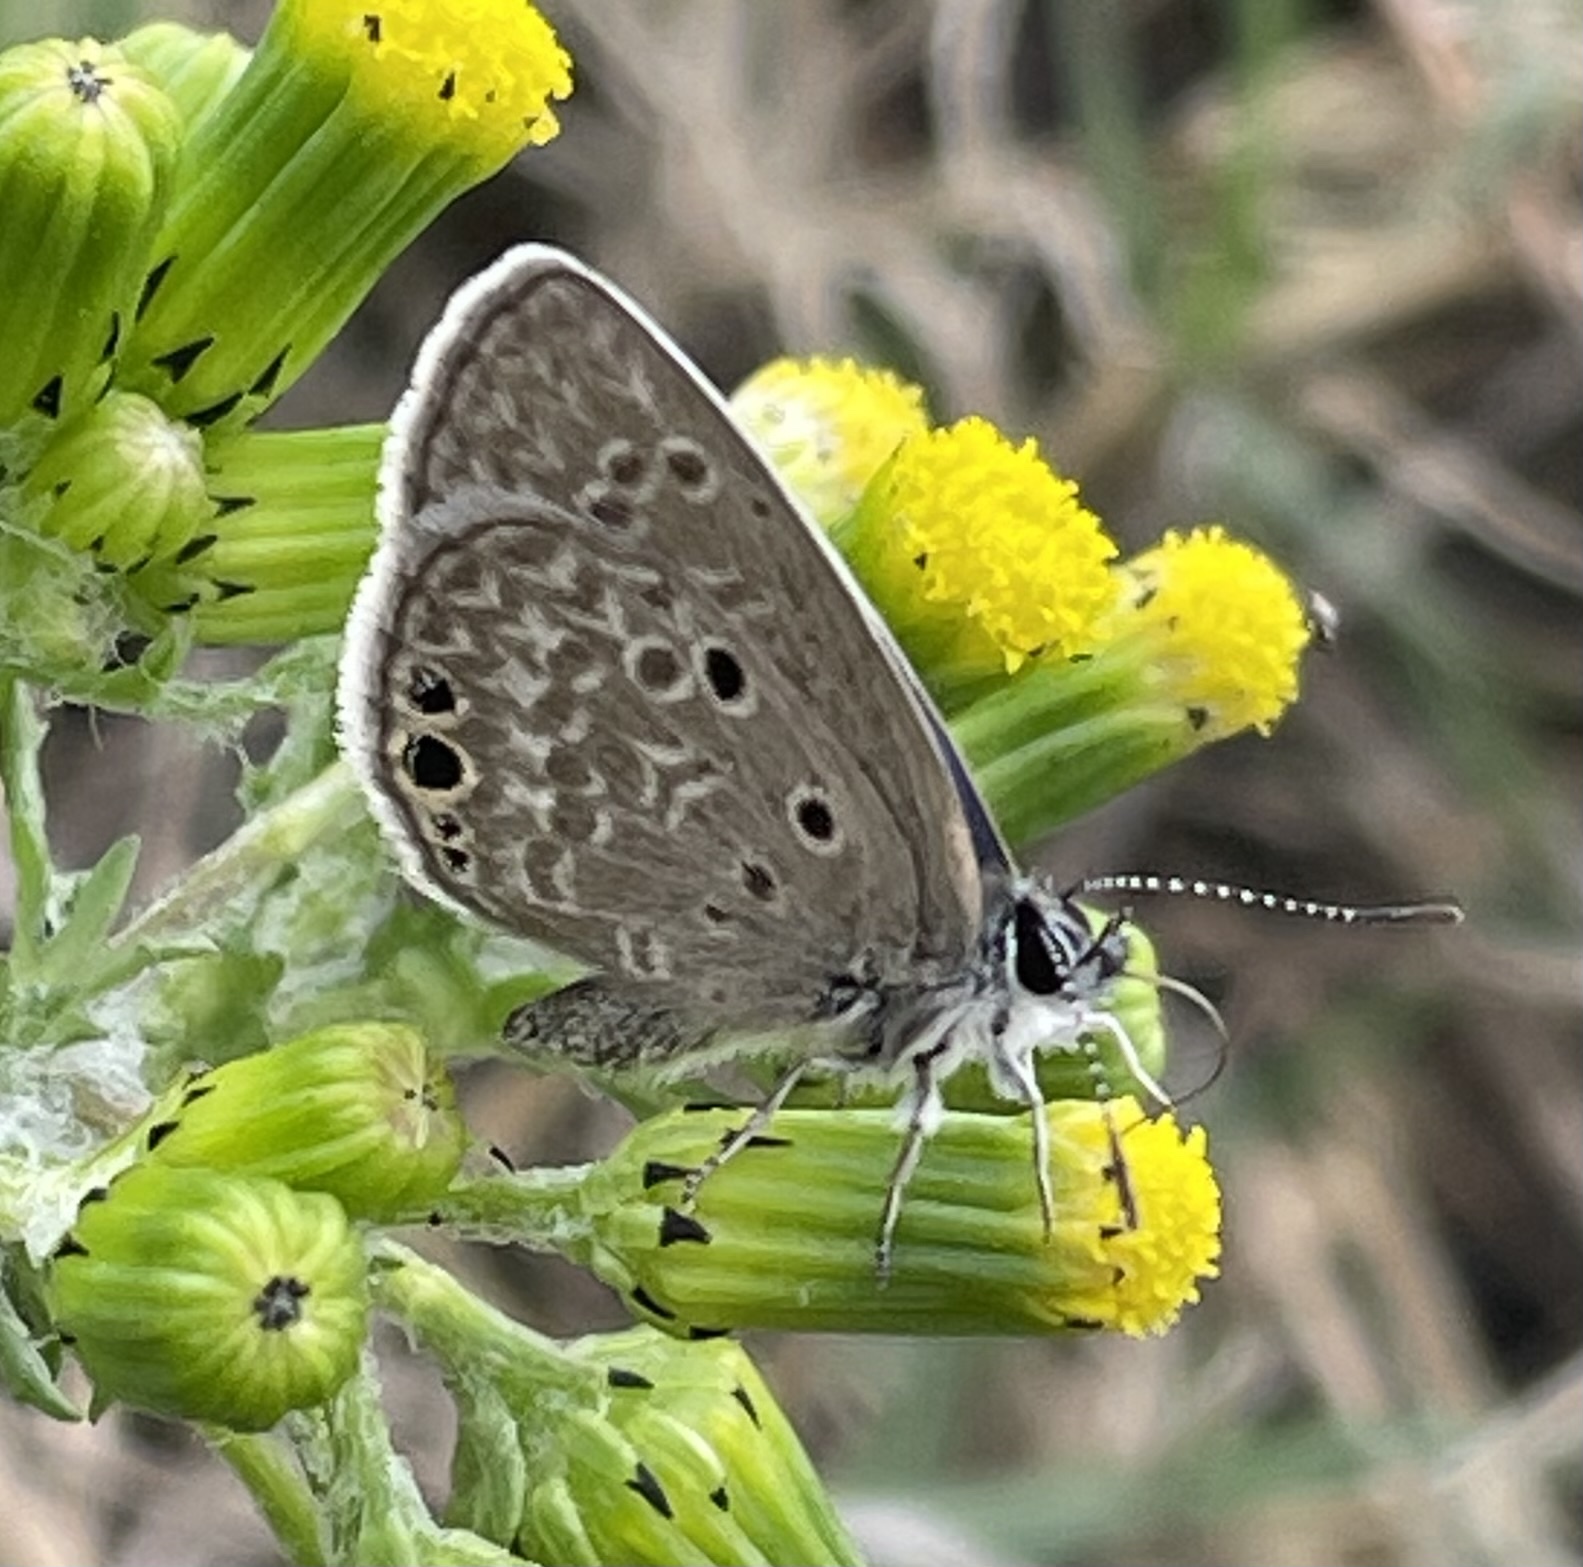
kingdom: Animalia
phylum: Arthropoda
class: Insecta
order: Lepidoptera
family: Lycaenidae
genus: Hemiargus
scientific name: Hemiargus ceraunus
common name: Ceraunus blue
